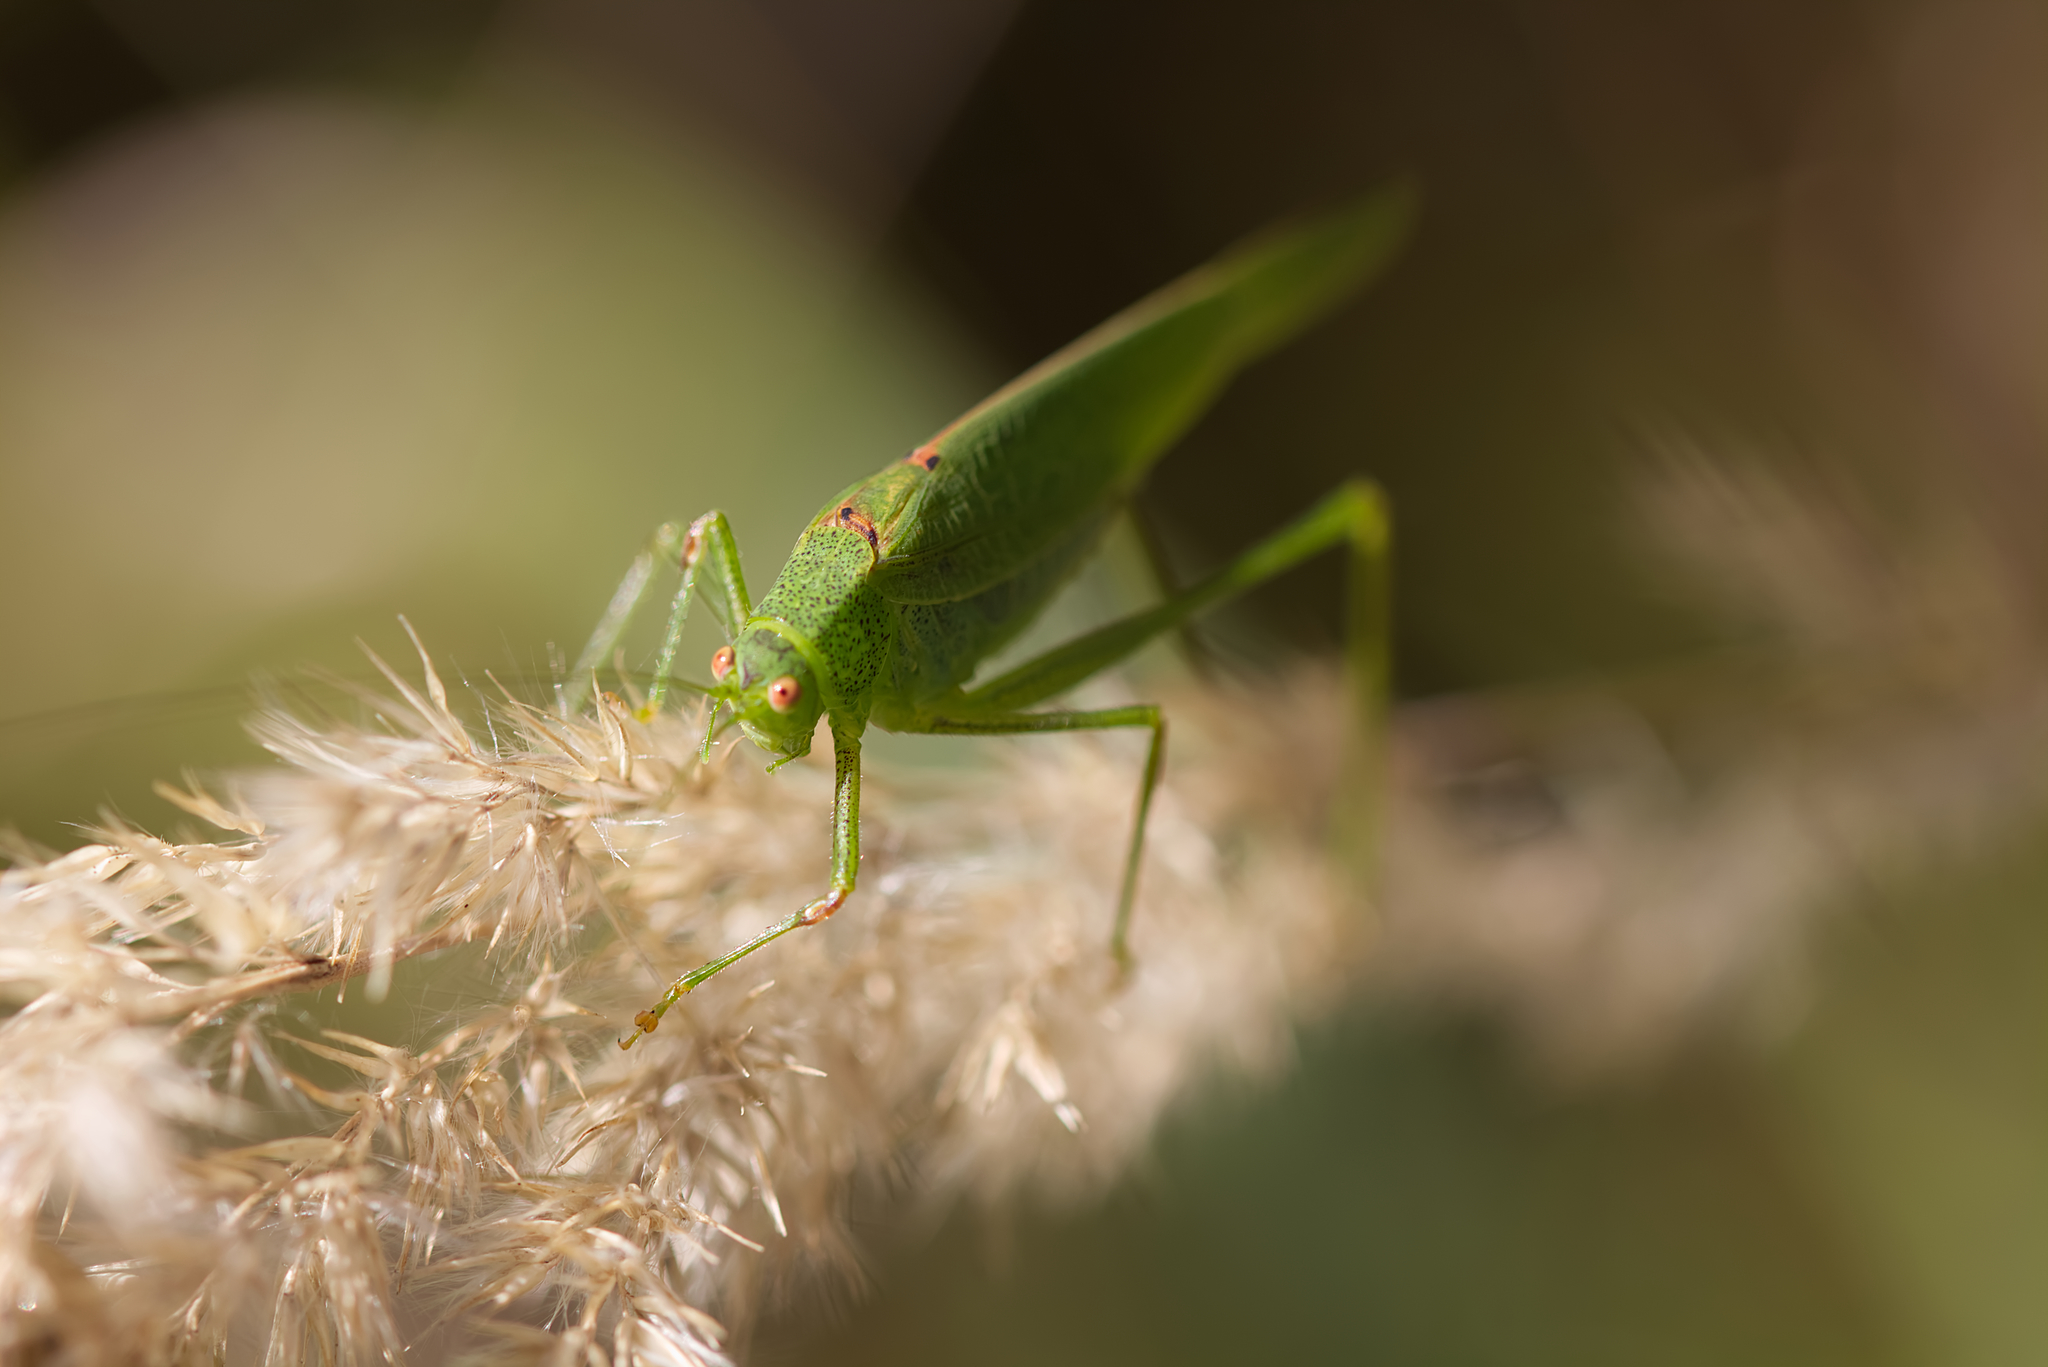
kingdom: Animalia
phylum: Arthropoda
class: Insecta
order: Orthoptera
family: Tettigoniidae
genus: Phaneroptera
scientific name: Phaneroptera nana
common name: Southern sickle bush-cricket
